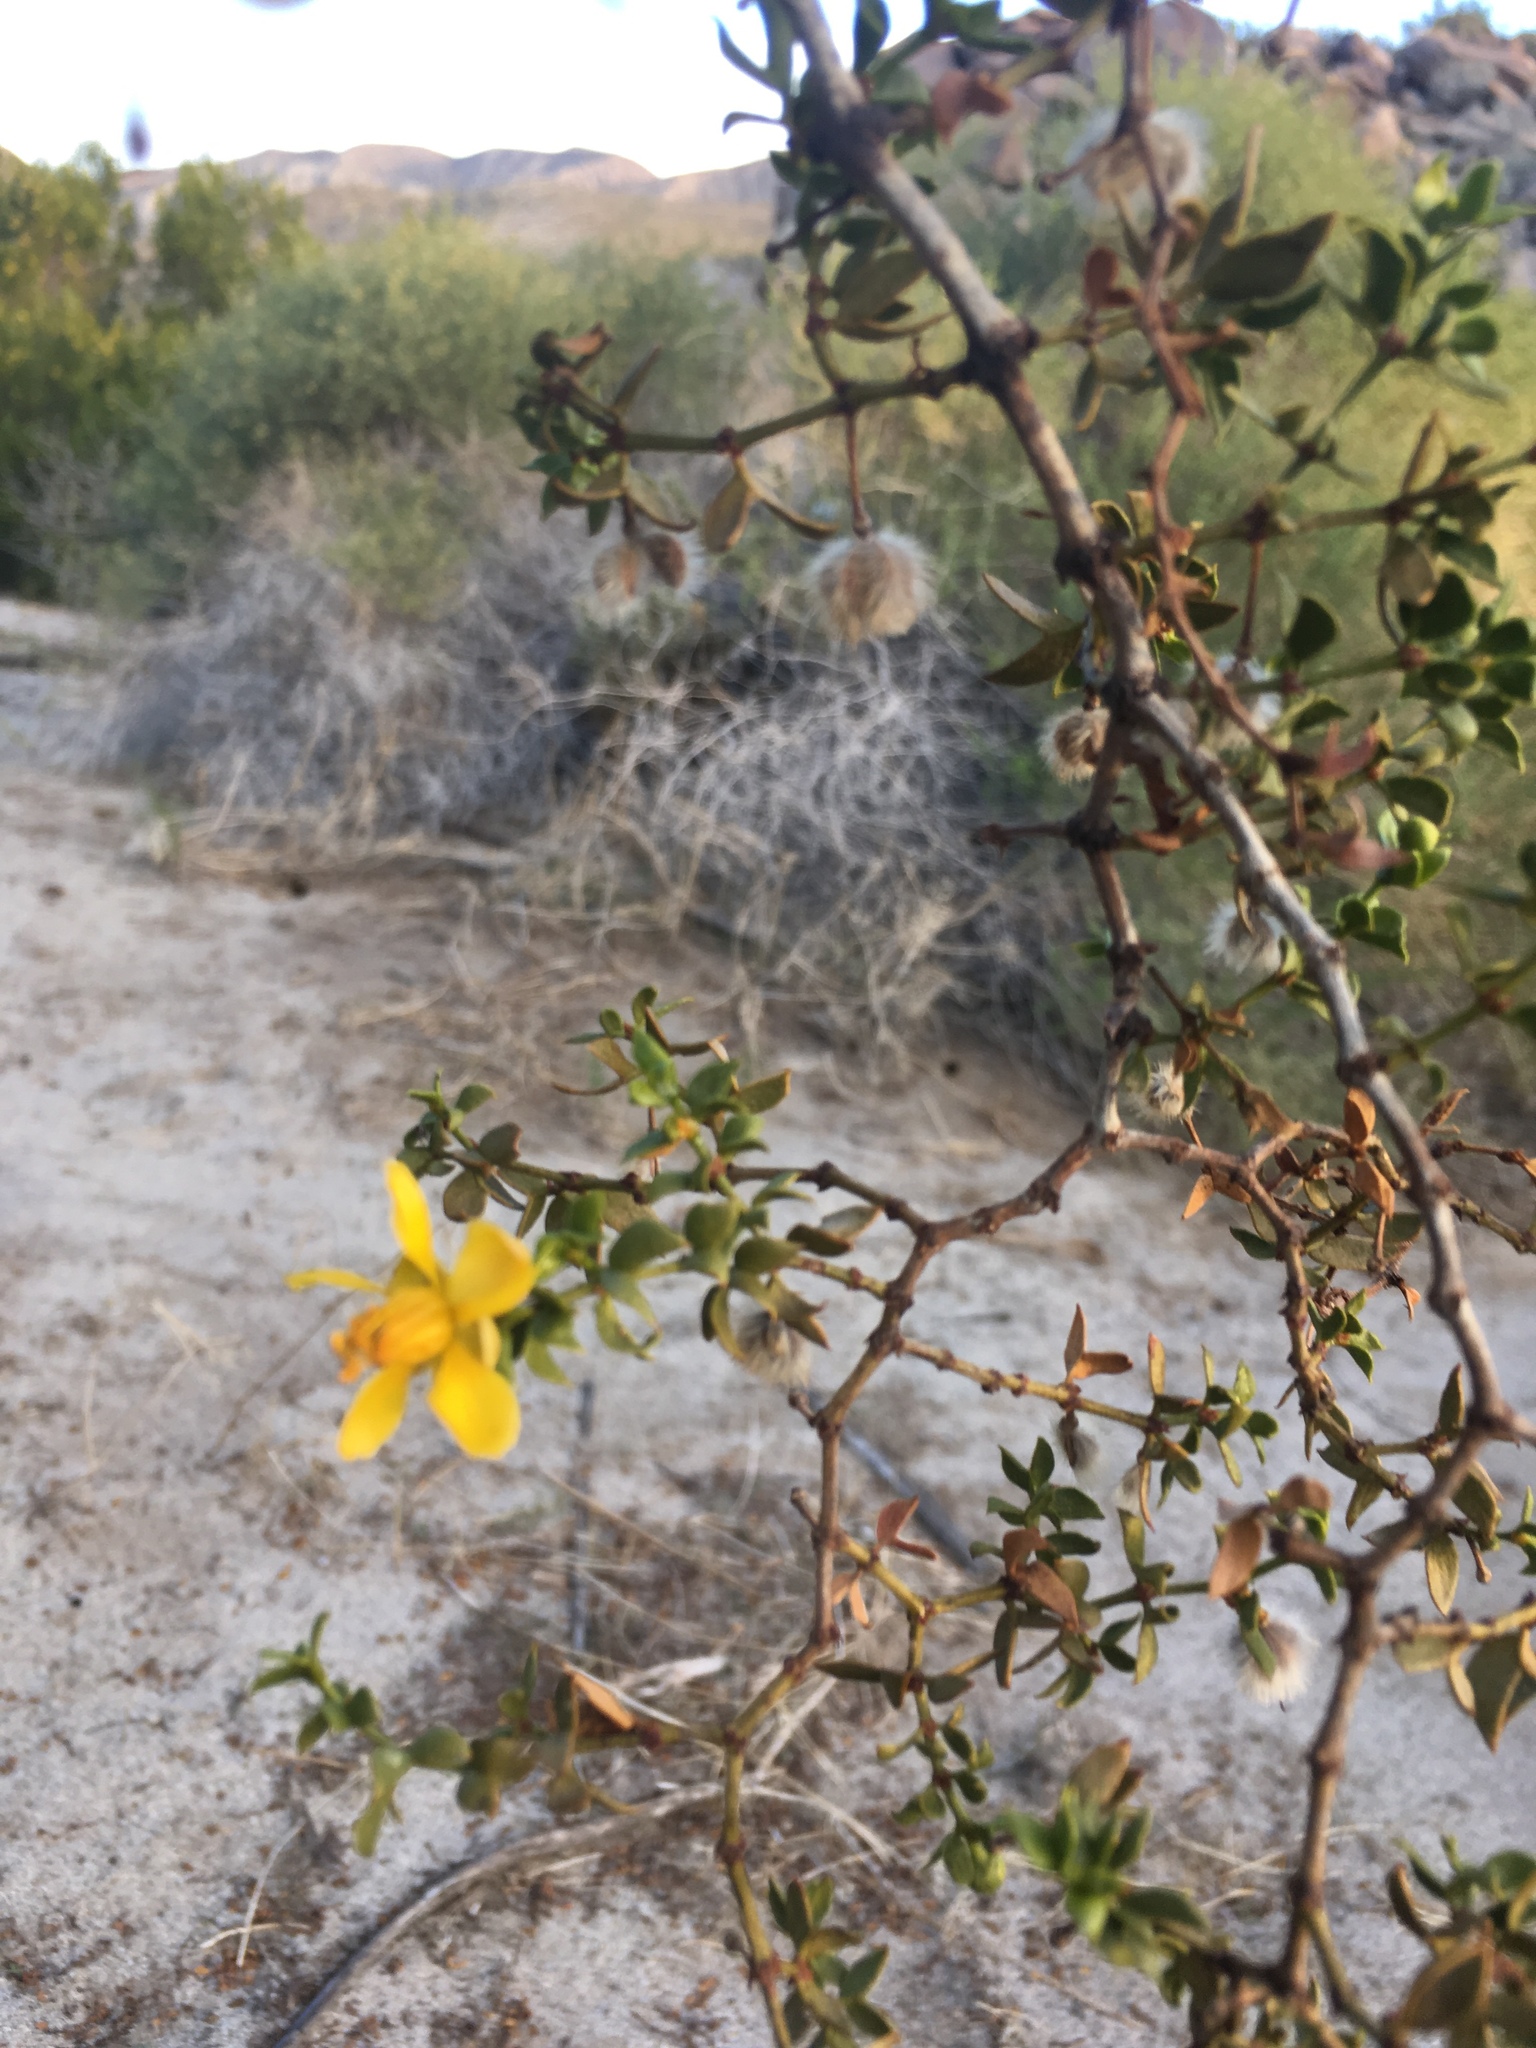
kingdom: Plantae
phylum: Tracheophyta
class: Magnoliopsida
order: Zygophyllales
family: Zygophyllaceae
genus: Larrea
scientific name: Larrea tridentata
